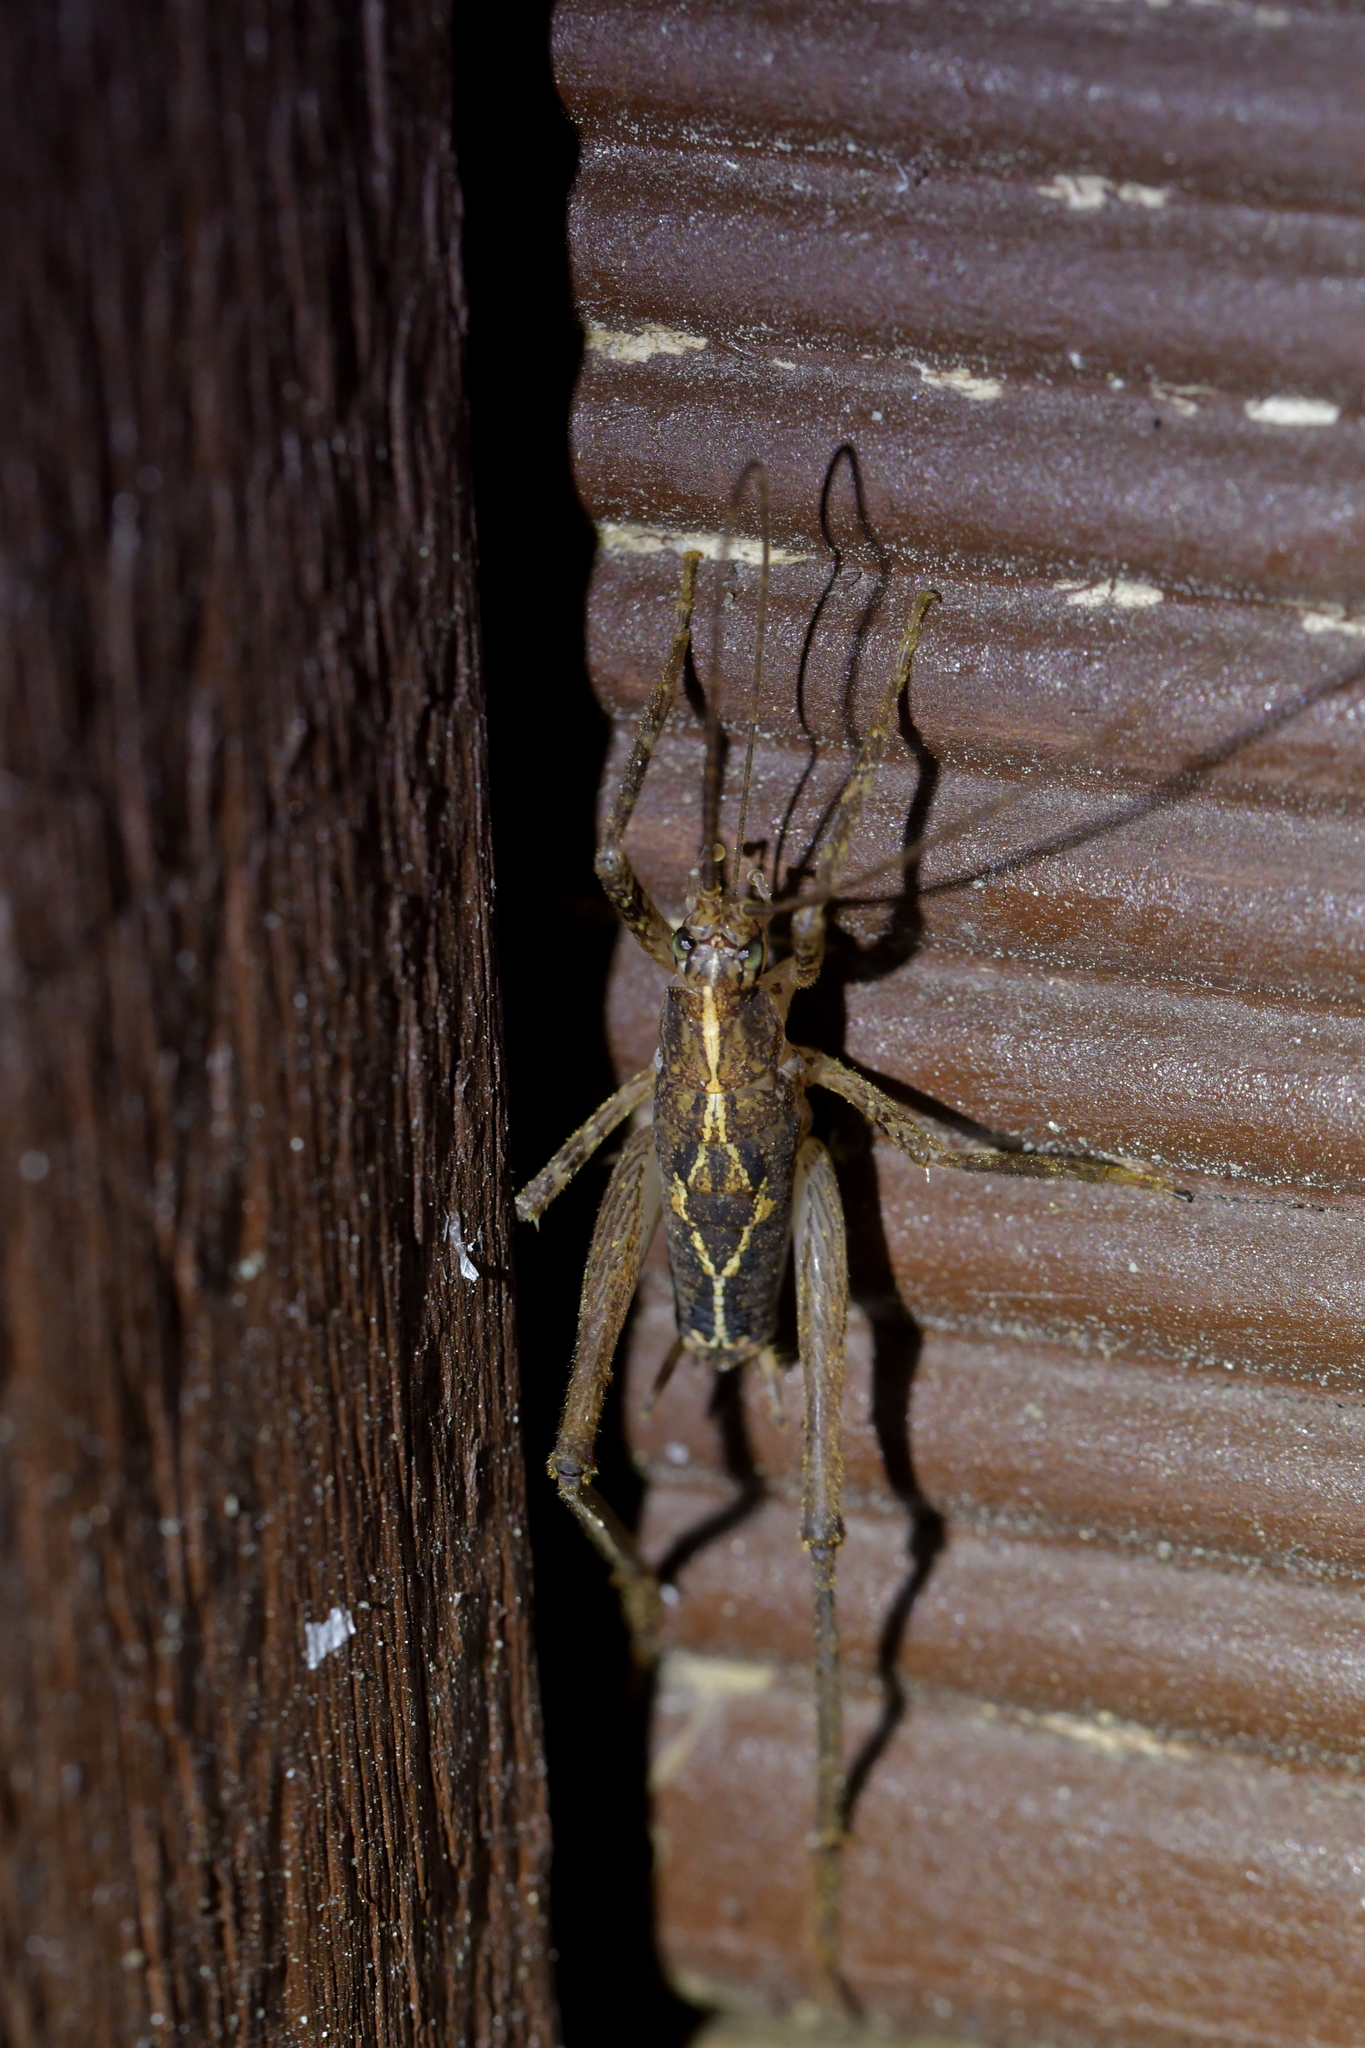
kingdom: Animalia
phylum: Arthropoda
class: Insecta
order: Orthoptera
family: Rhaphidophoridae
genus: Isoplectron
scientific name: Isoplectron armatum
